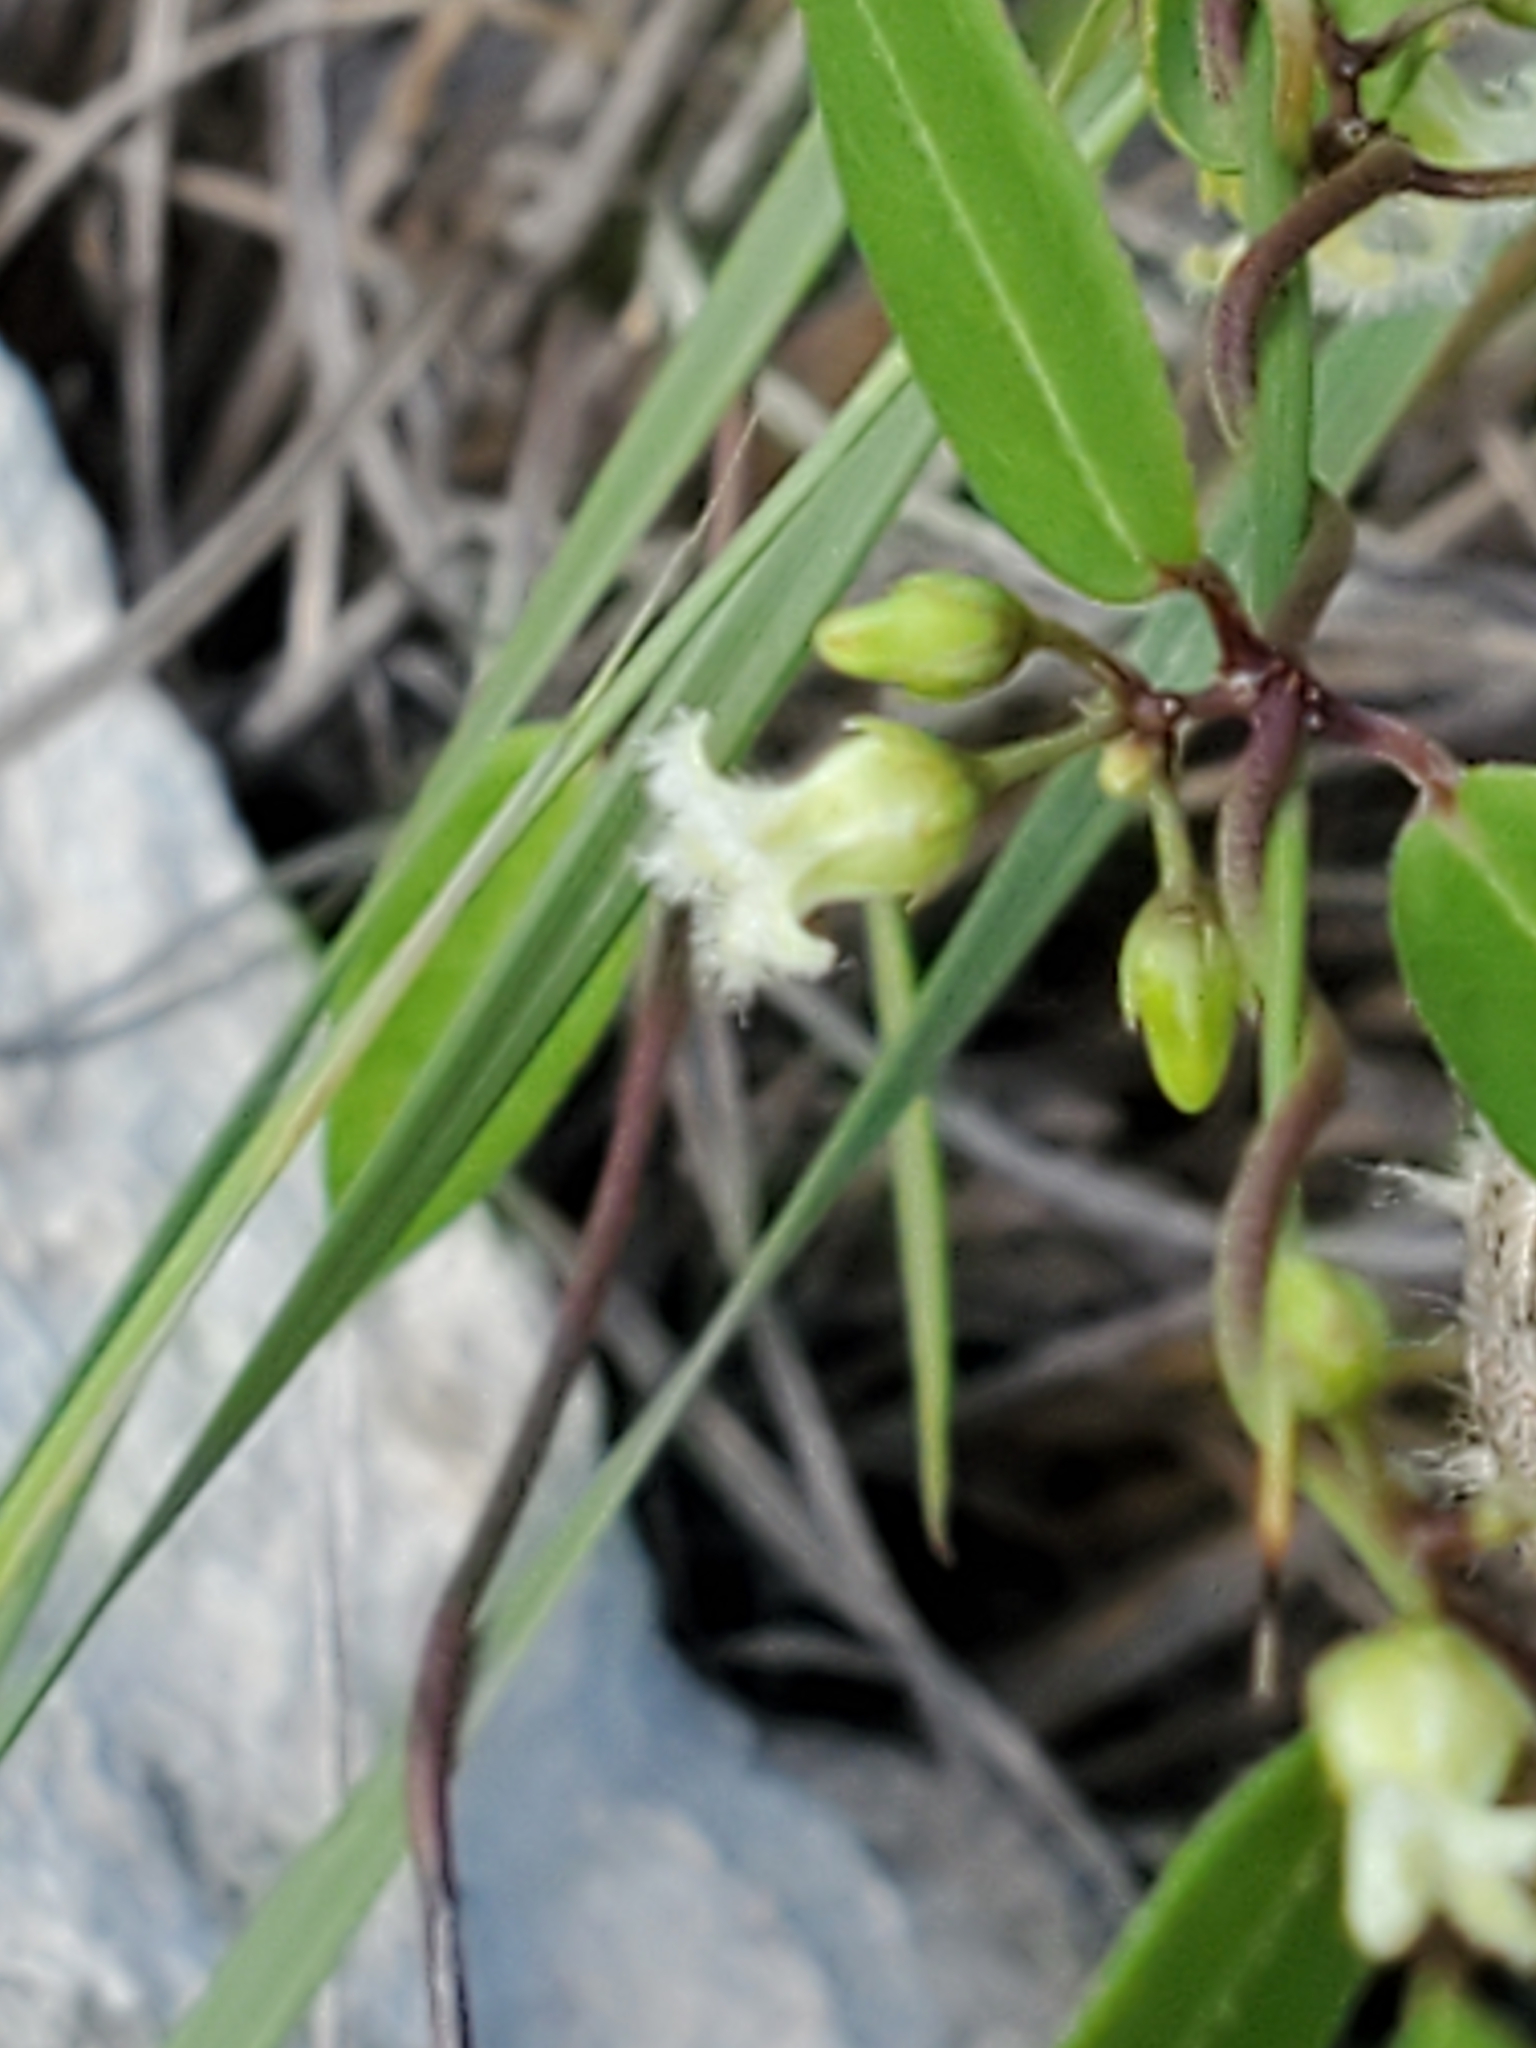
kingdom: Plantae
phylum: Tracheophyta
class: Magnoliopsida
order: Gentianales
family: Apocynaceae
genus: Metastelma
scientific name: Metastelma barbigerum
